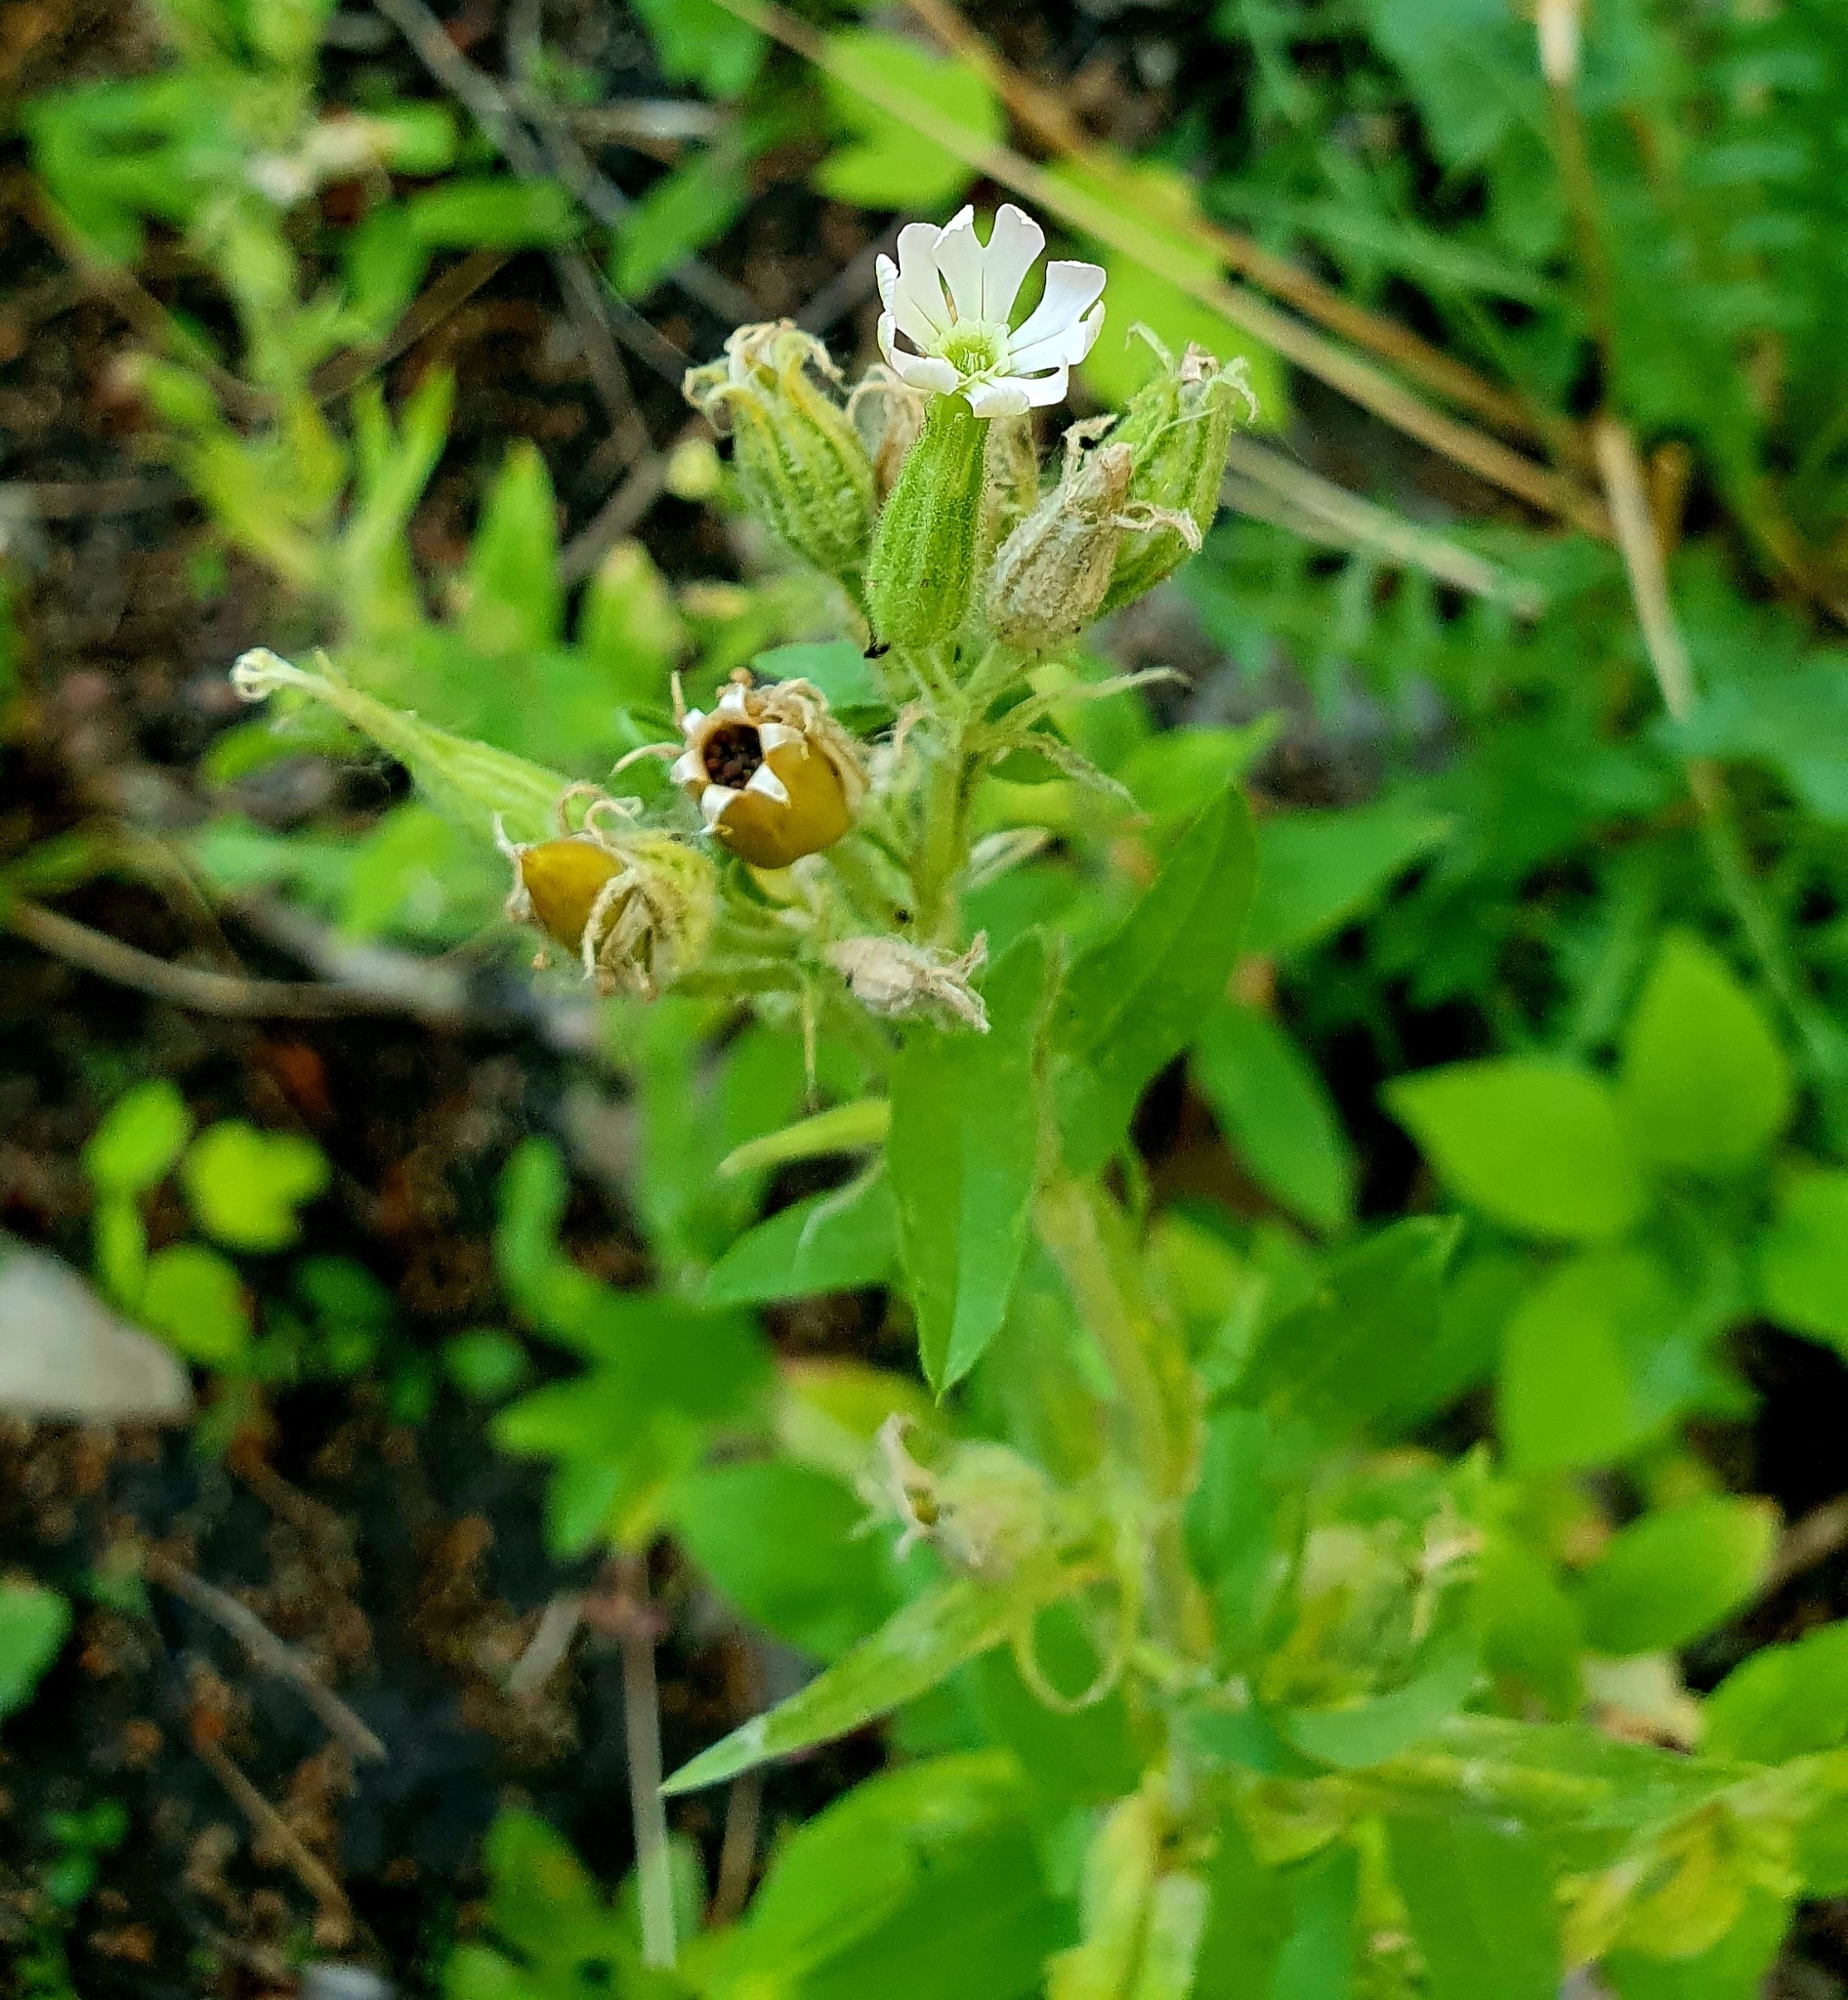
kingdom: Plantae
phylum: Tracheophyta
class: Magnoliopsida
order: Caryophyllales
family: Caryophyllaceae
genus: Silene
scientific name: Silene latifolia
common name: White campion
